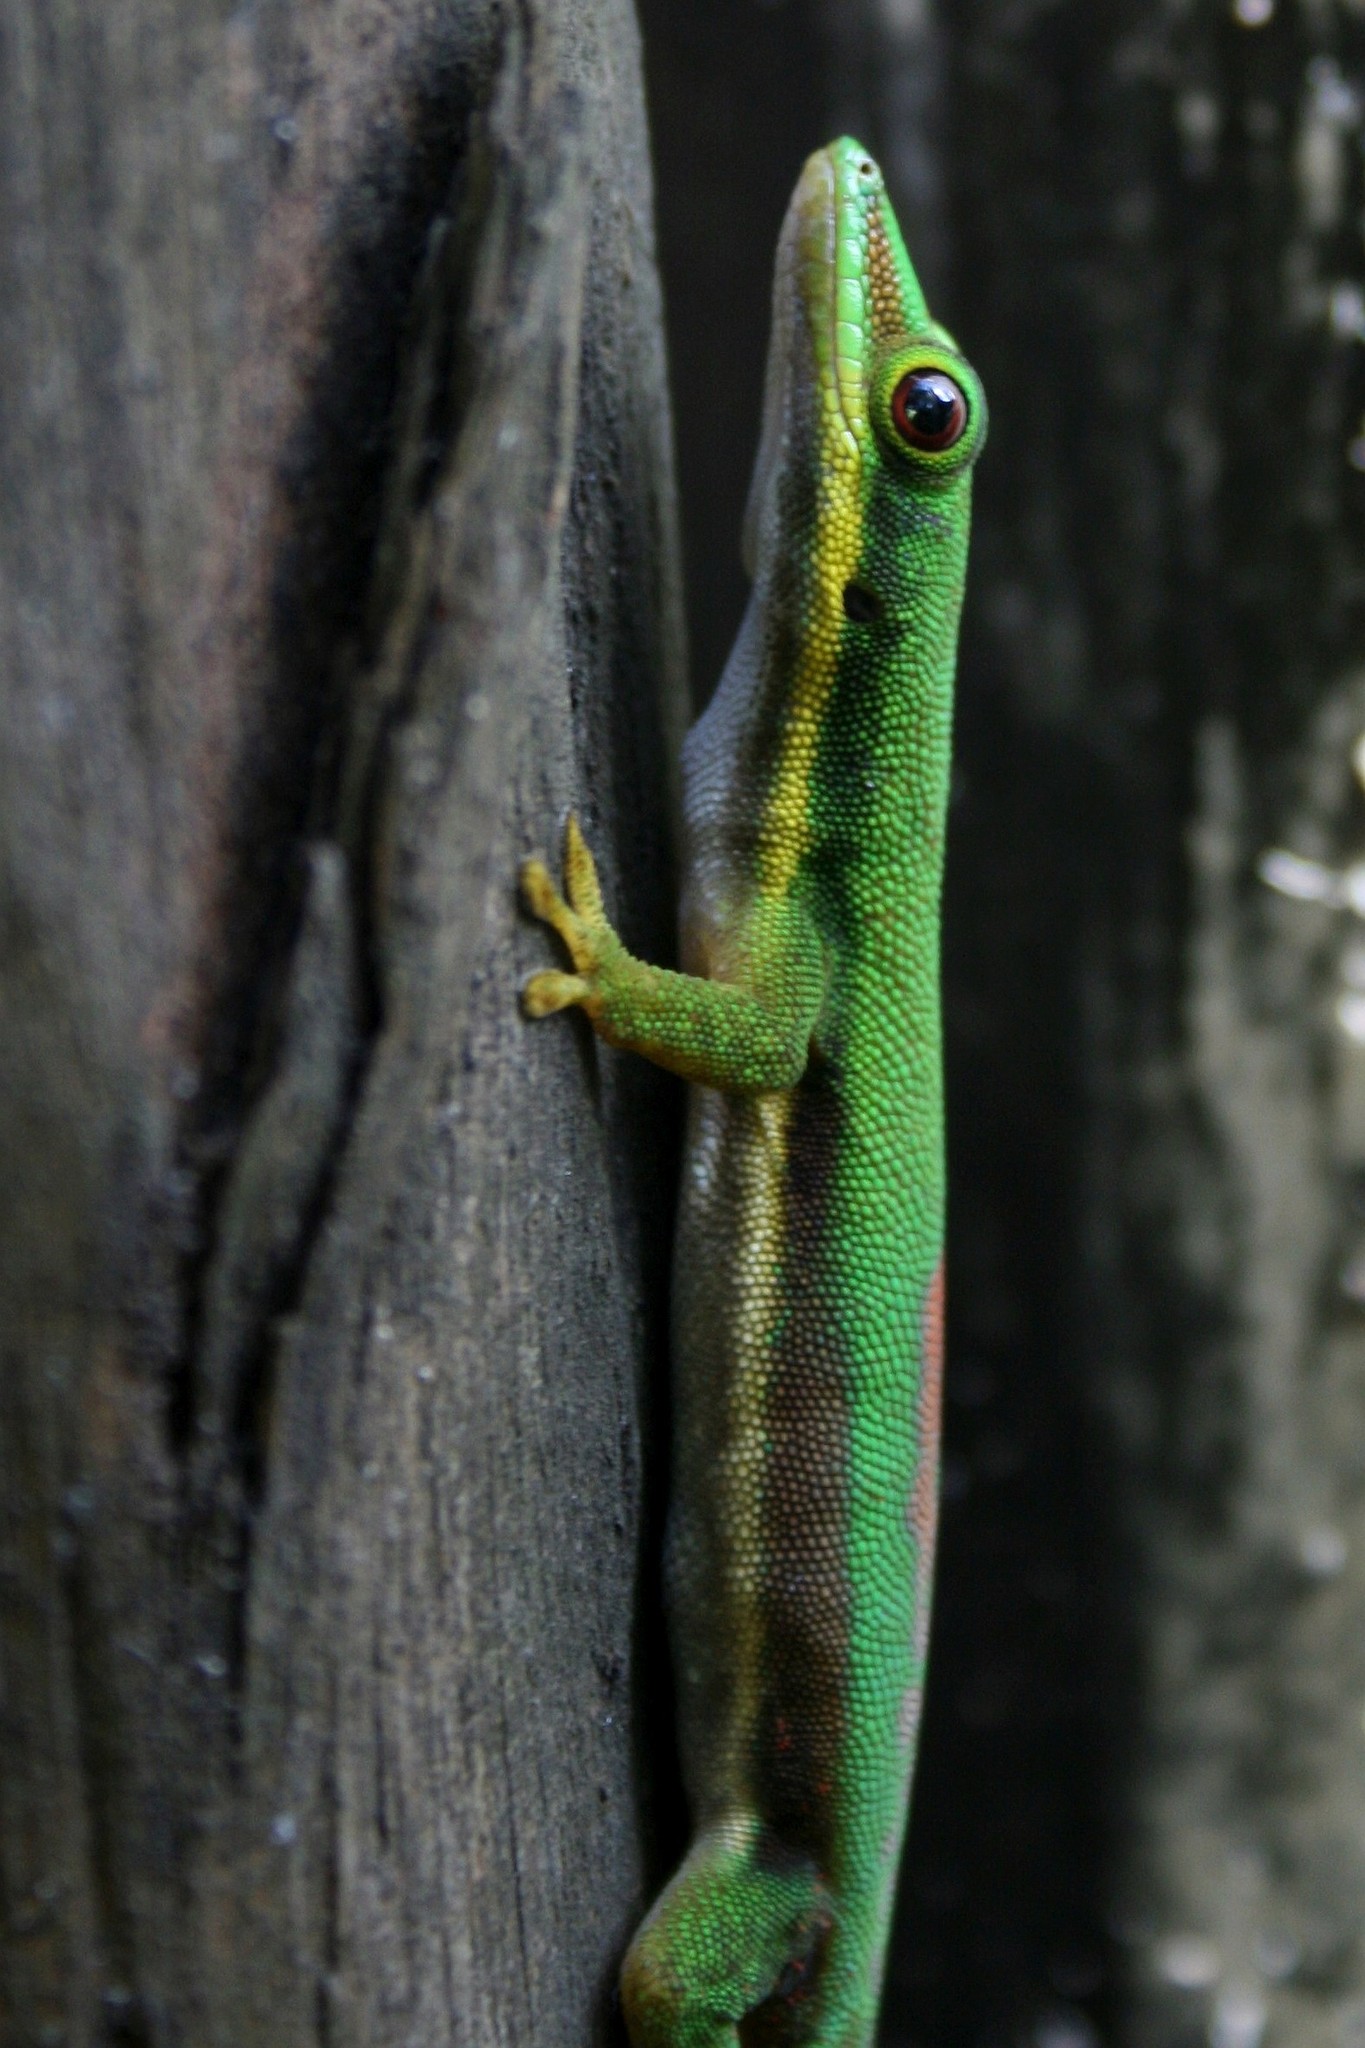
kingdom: Animalia
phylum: Chordata
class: Squamata
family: Gekkonidae
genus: Phelsuma
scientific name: Phelsuma lineata
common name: Lined day gecko
